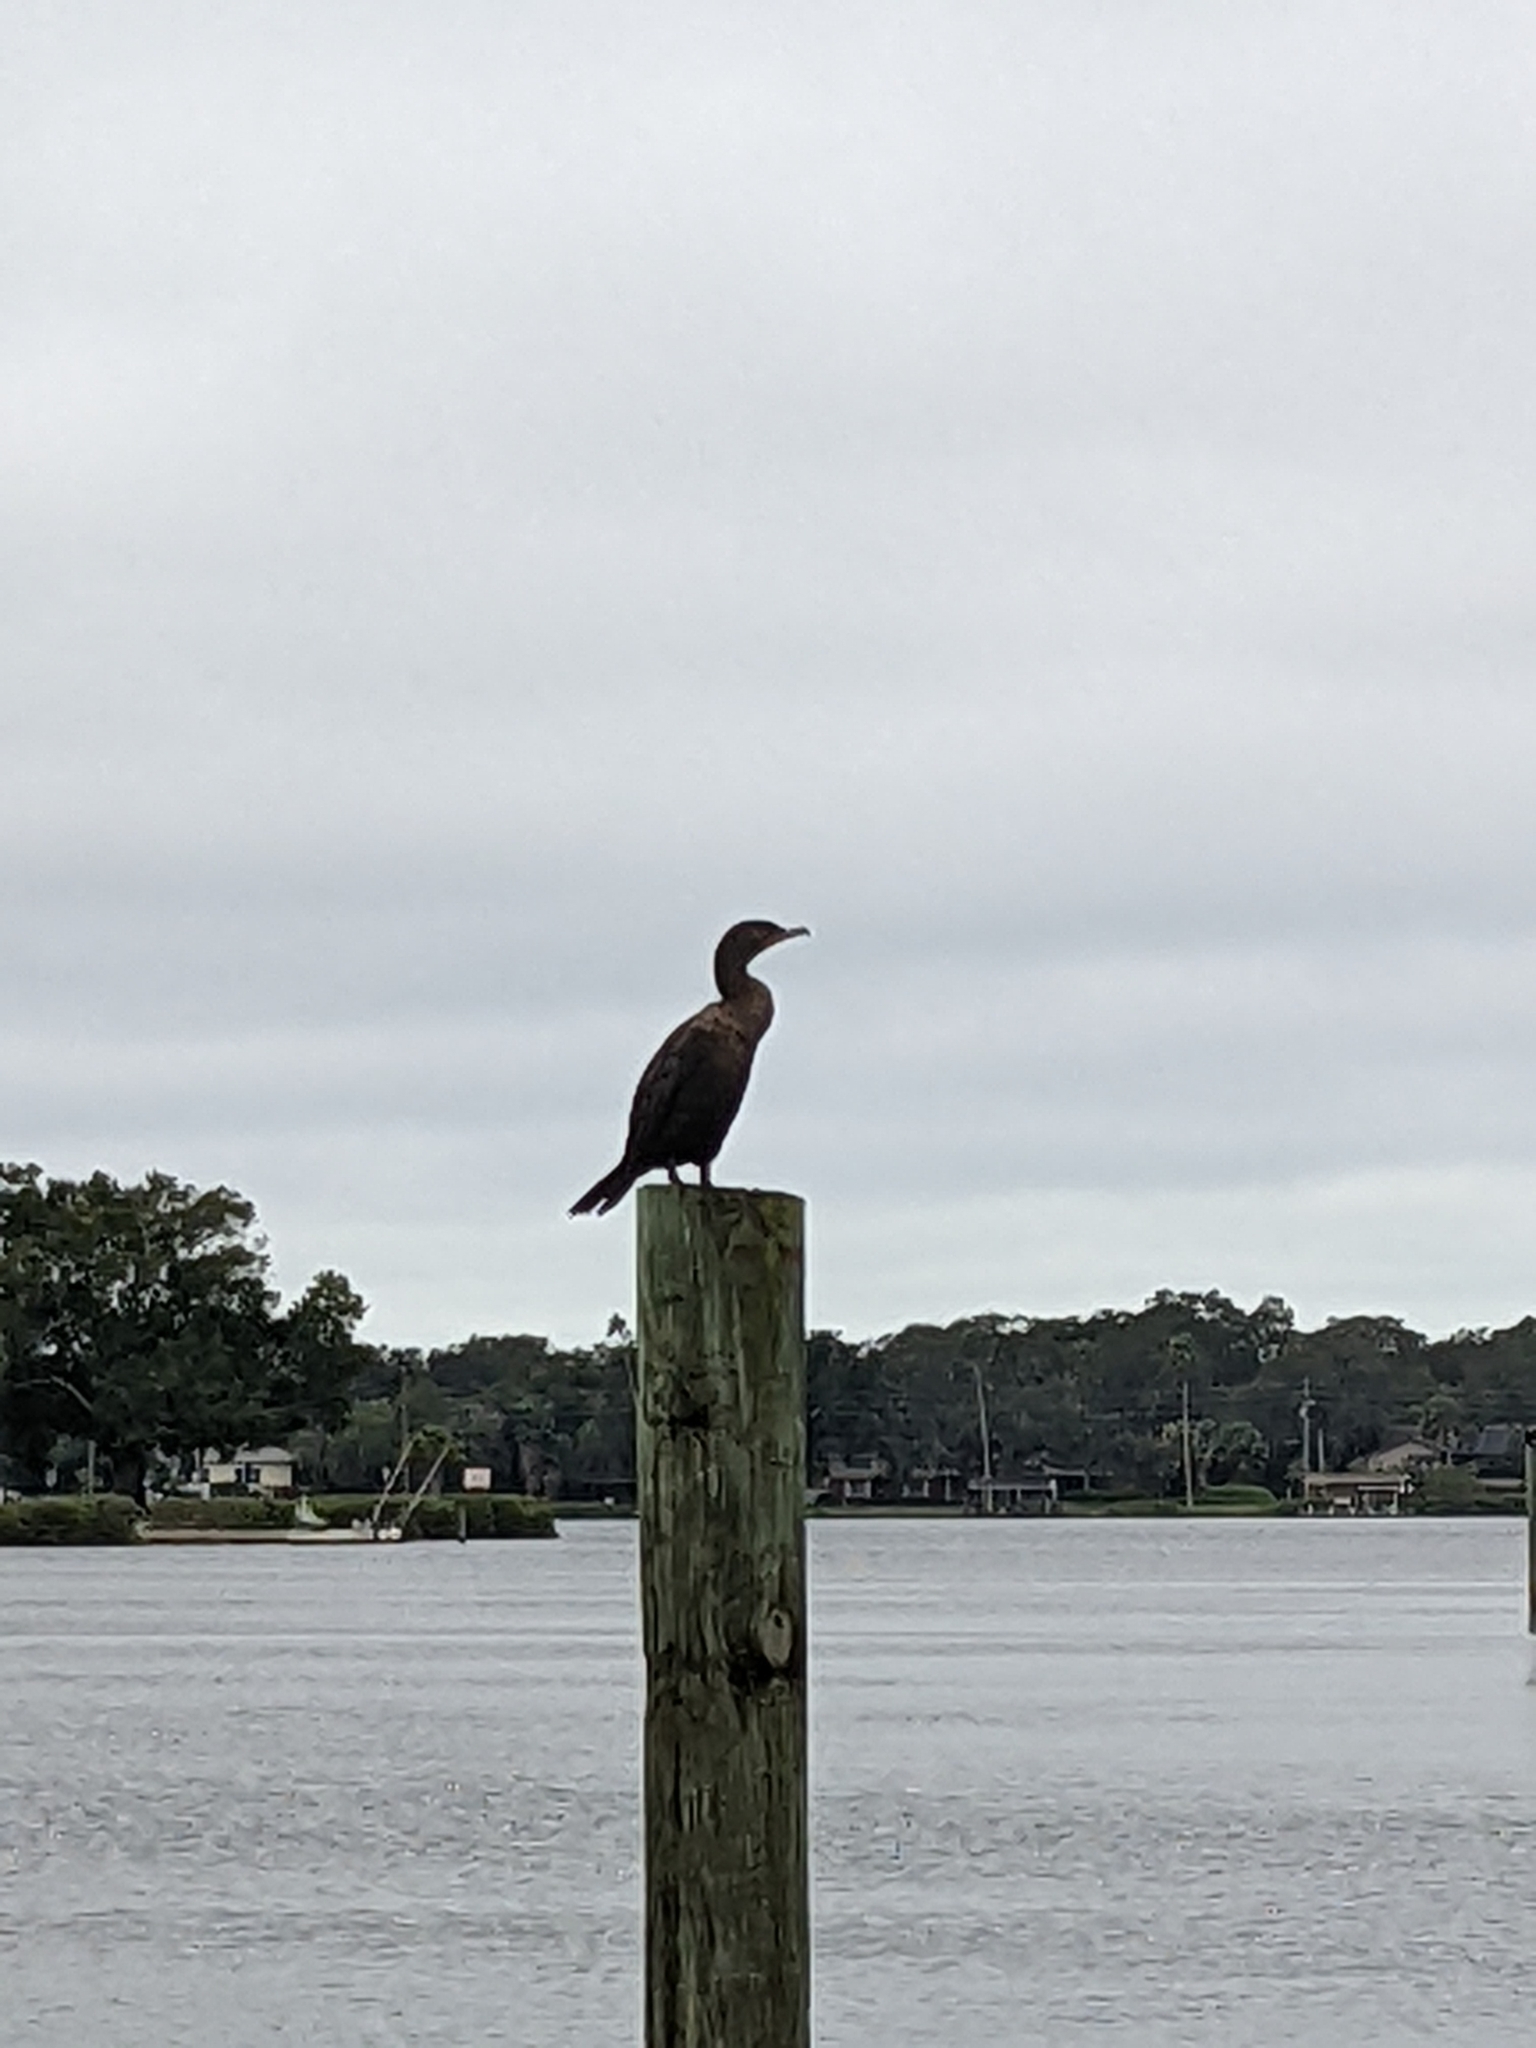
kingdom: Animalia
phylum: Chordata
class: Aves
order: Suliformes
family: Phalacrocoracidae
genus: Phalacrocorax
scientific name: Phalacrocorax auritus
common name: Double-crested cormorant
